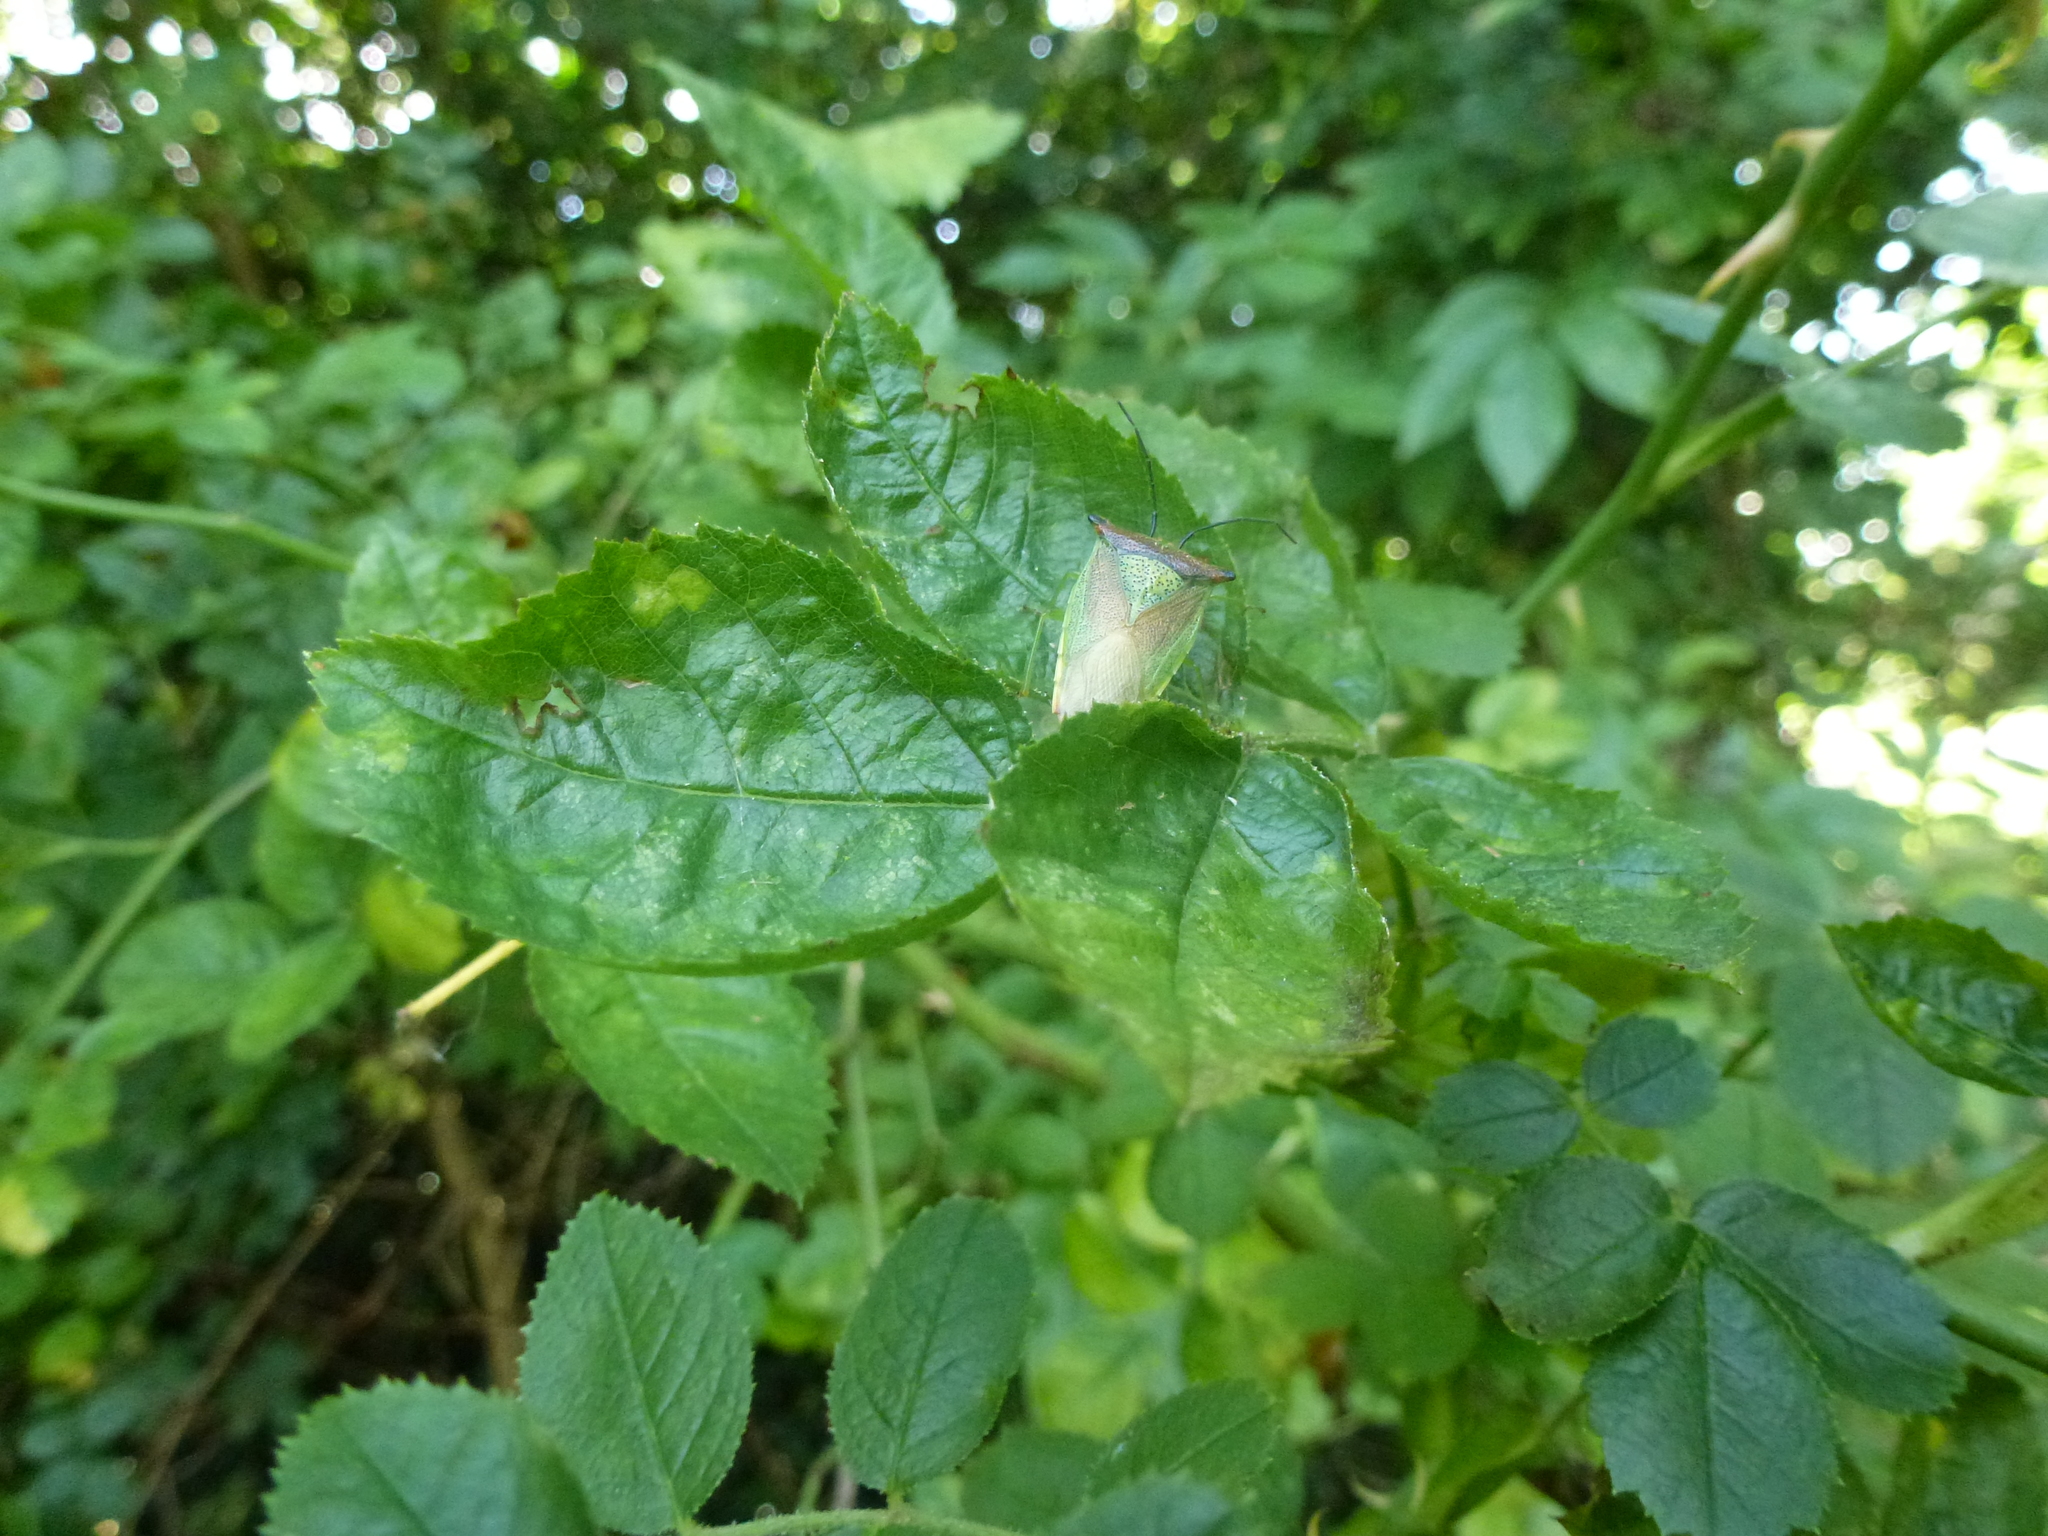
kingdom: Animalia
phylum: Arthropoda
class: Insecta
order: Hemiptera
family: Acanthosomatidae
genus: Acanthosoma
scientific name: Acanthosoma haemorrhoidale
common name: Hawthorn shieldbug
